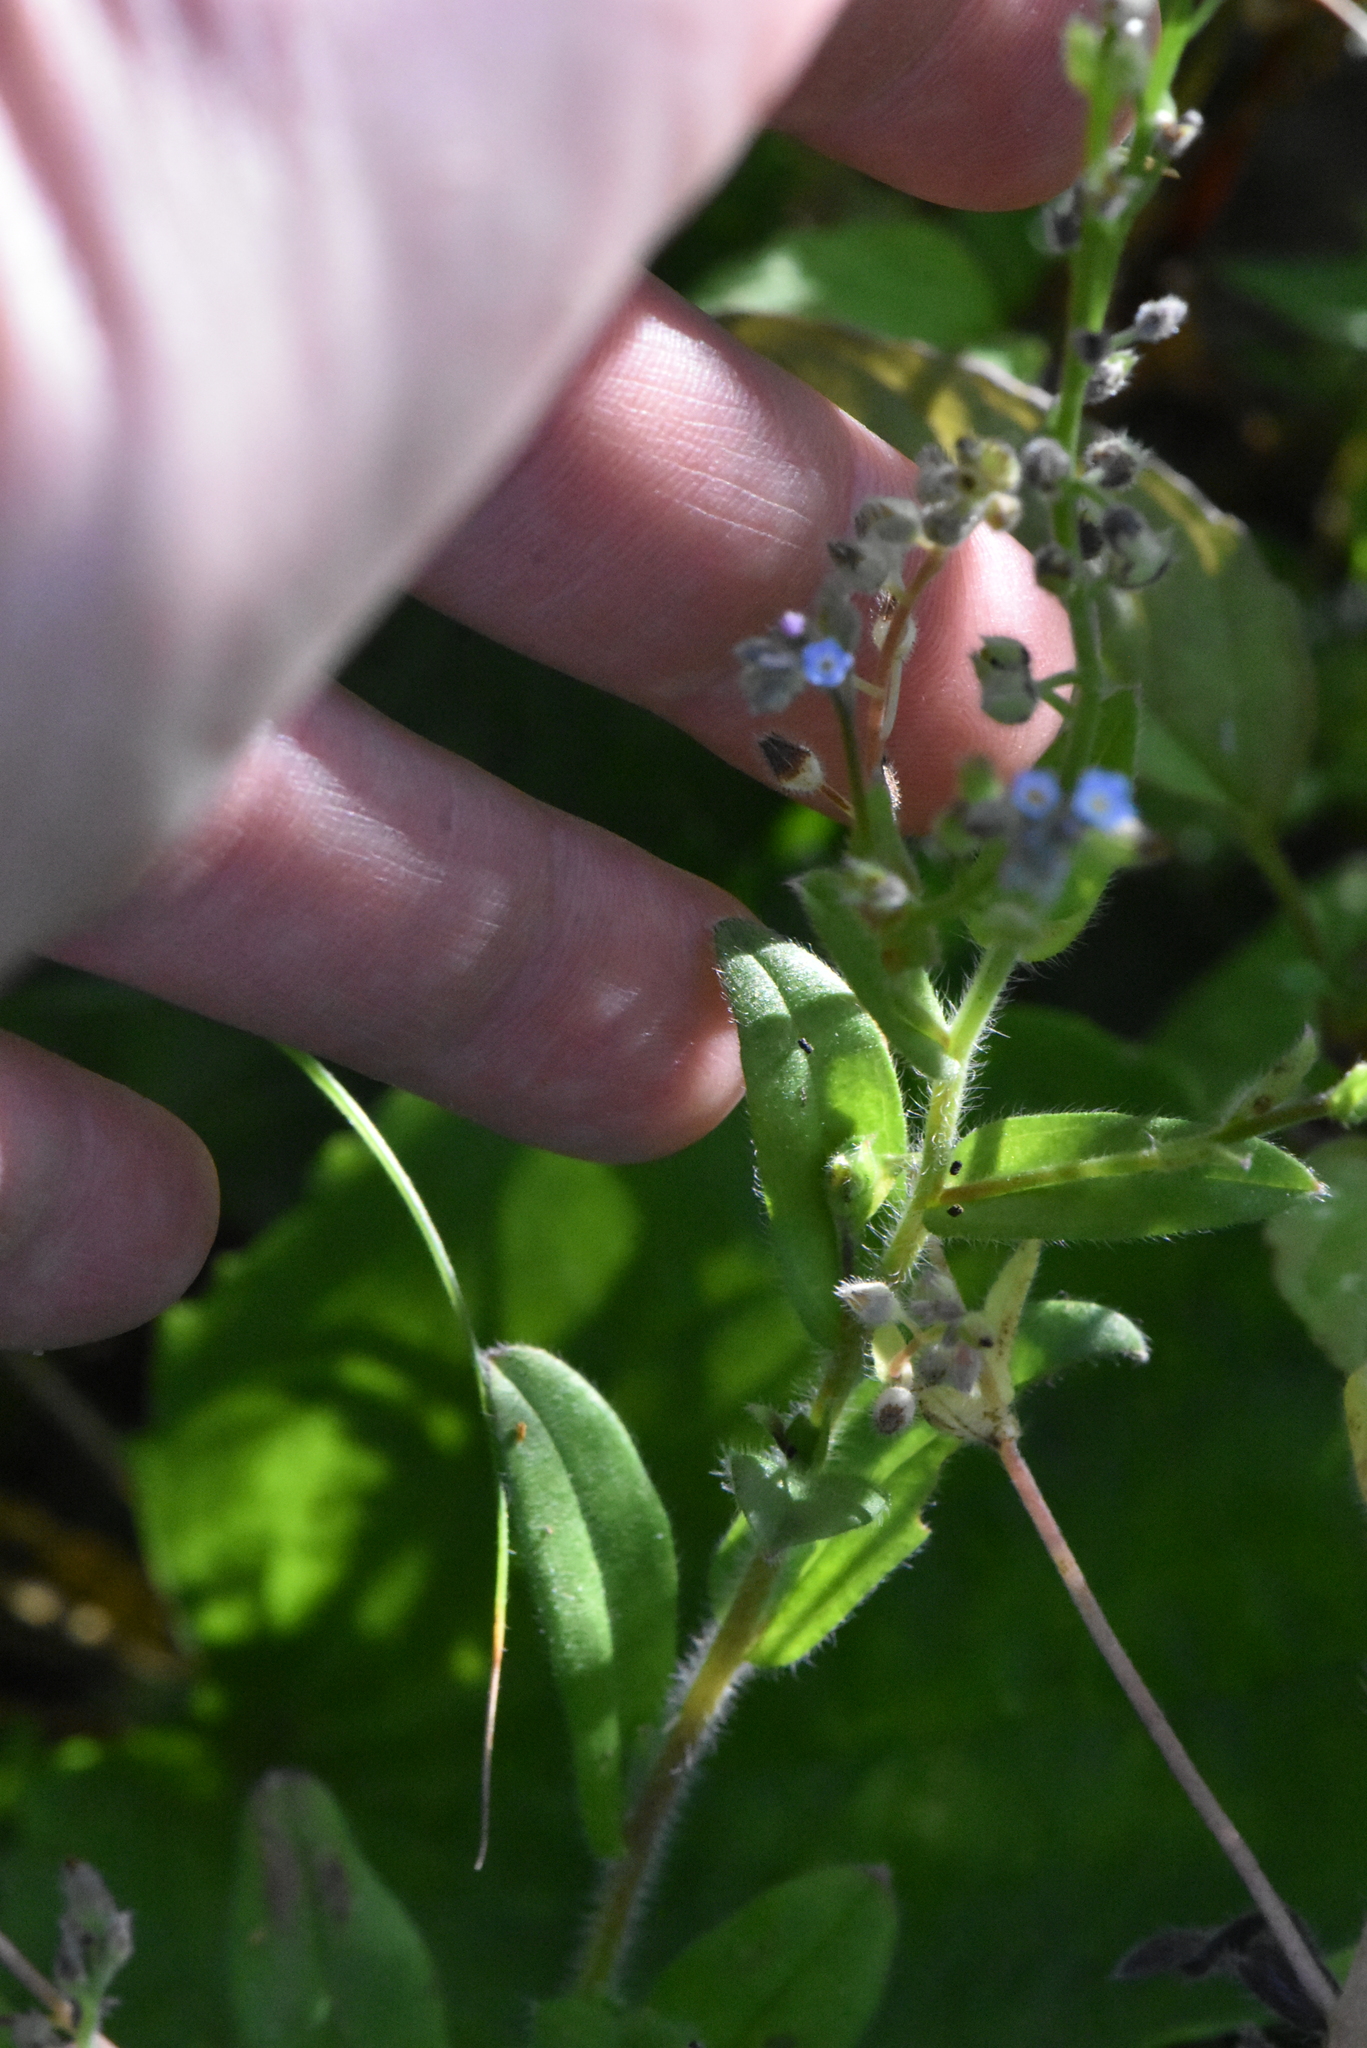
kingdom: Plantae
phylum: Tracheophyta
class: Magnoliopsida
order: Boraginales
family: Boraginaceae
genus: Myosotis
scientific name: Myosotis arvensis
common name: Field forget-me-not
